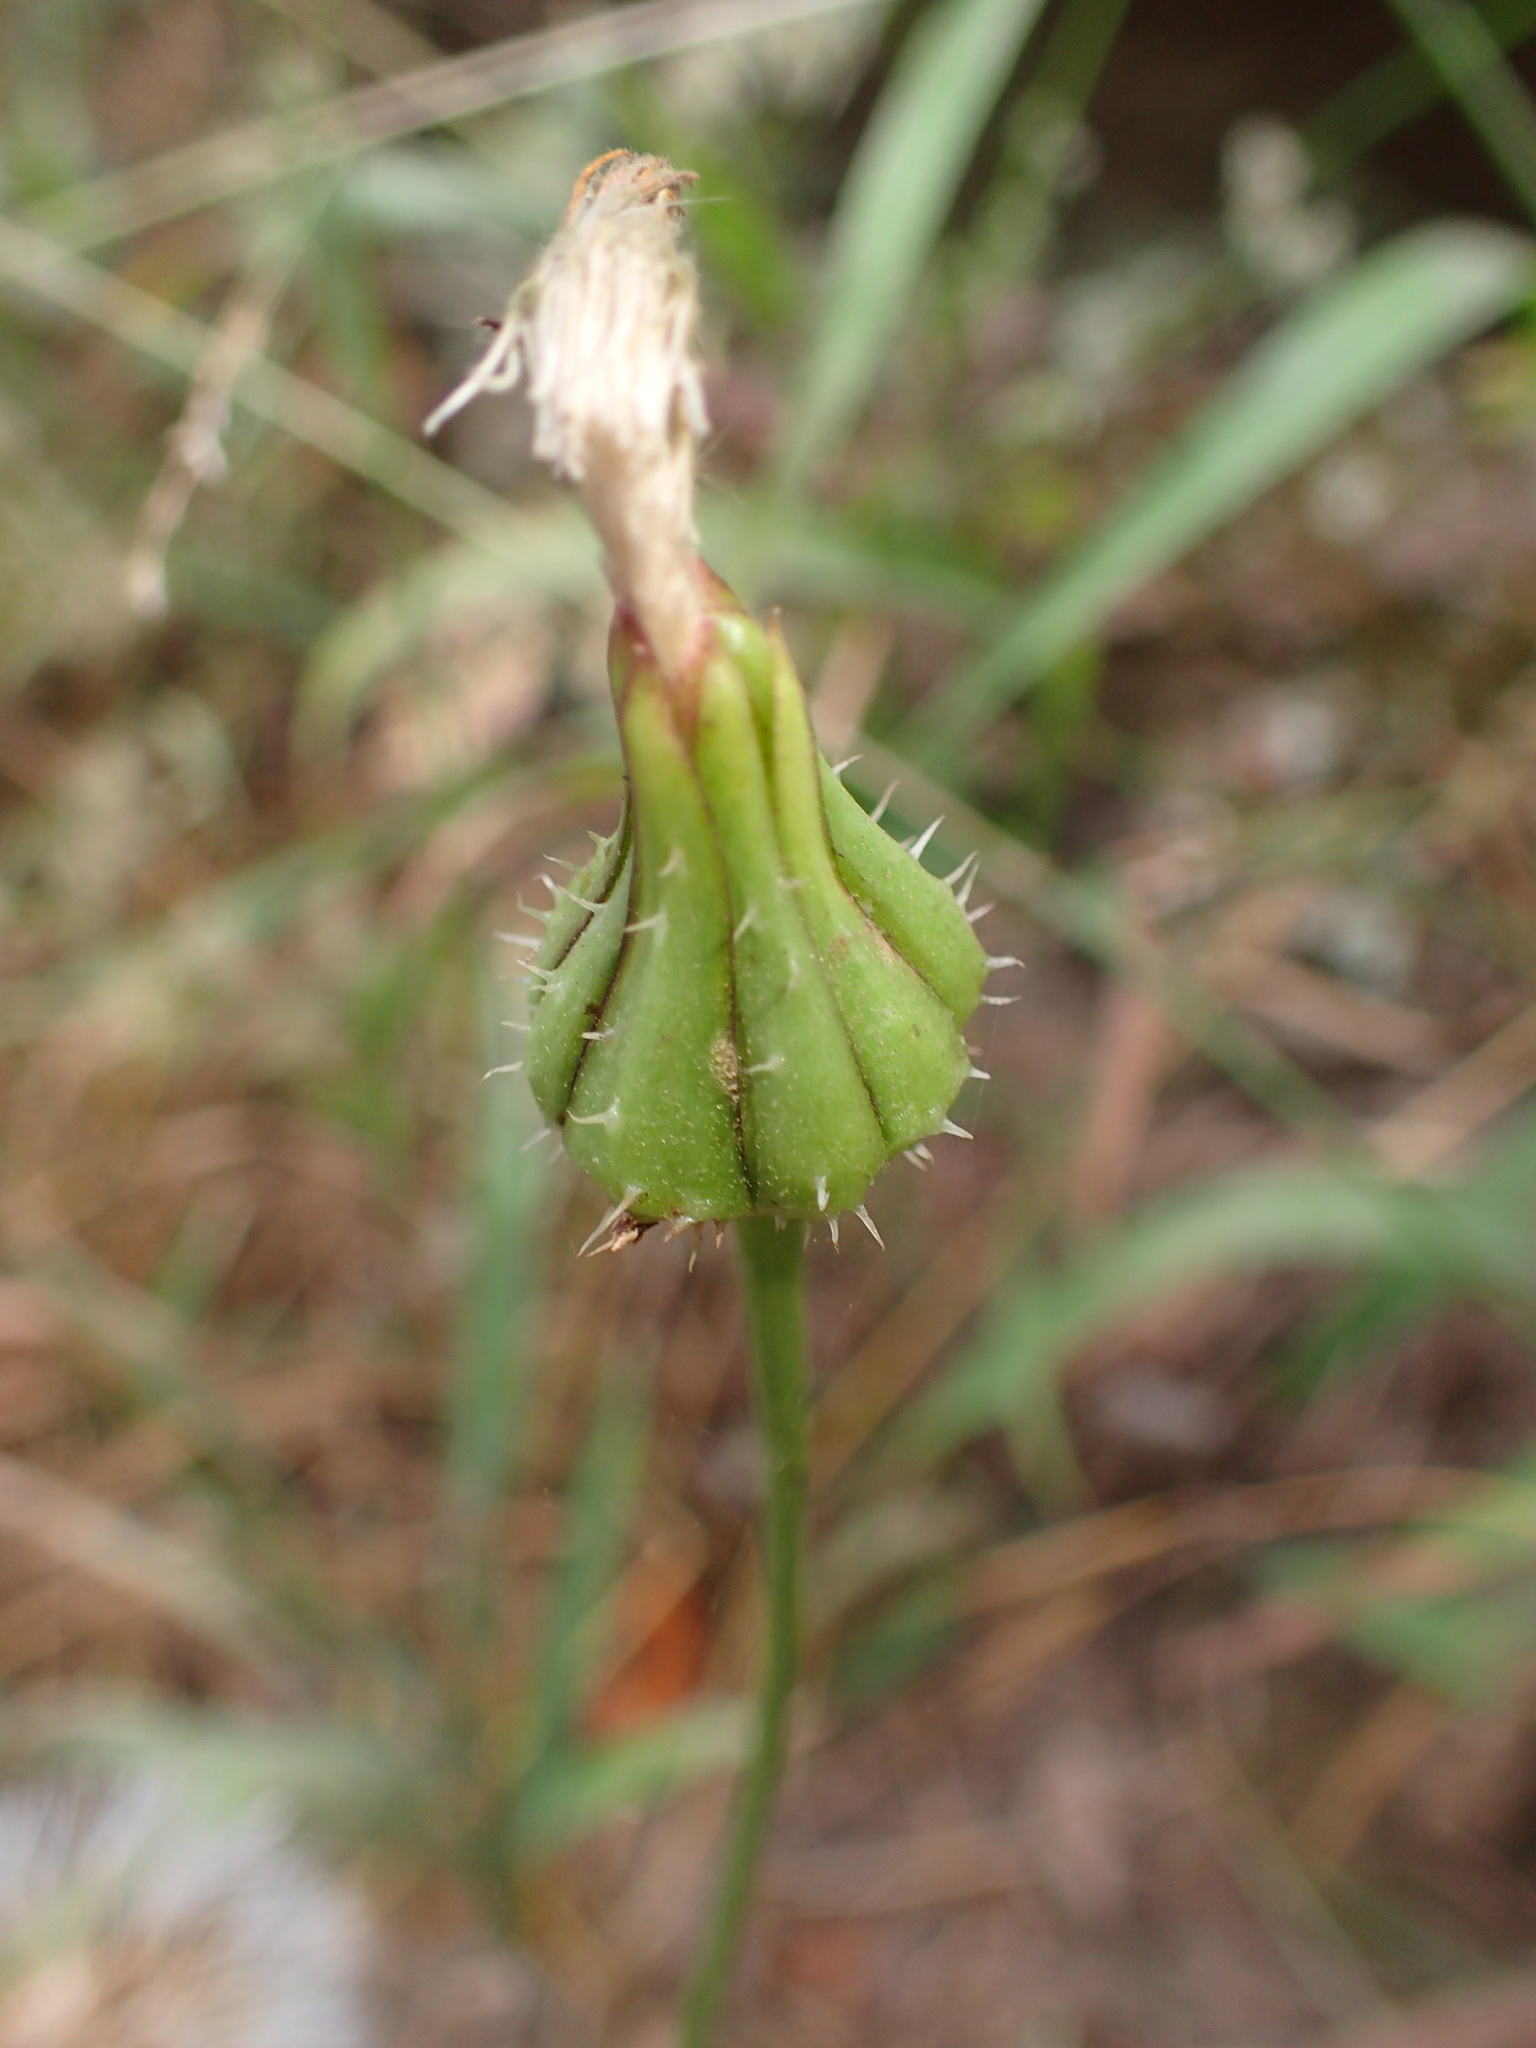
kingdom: Plantae
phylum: Tracheophyta
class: Magnoliopsida
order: Asterales
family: Asteraceae
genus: Urospermum
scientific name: Urospermum picroides
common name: False hawkbit
